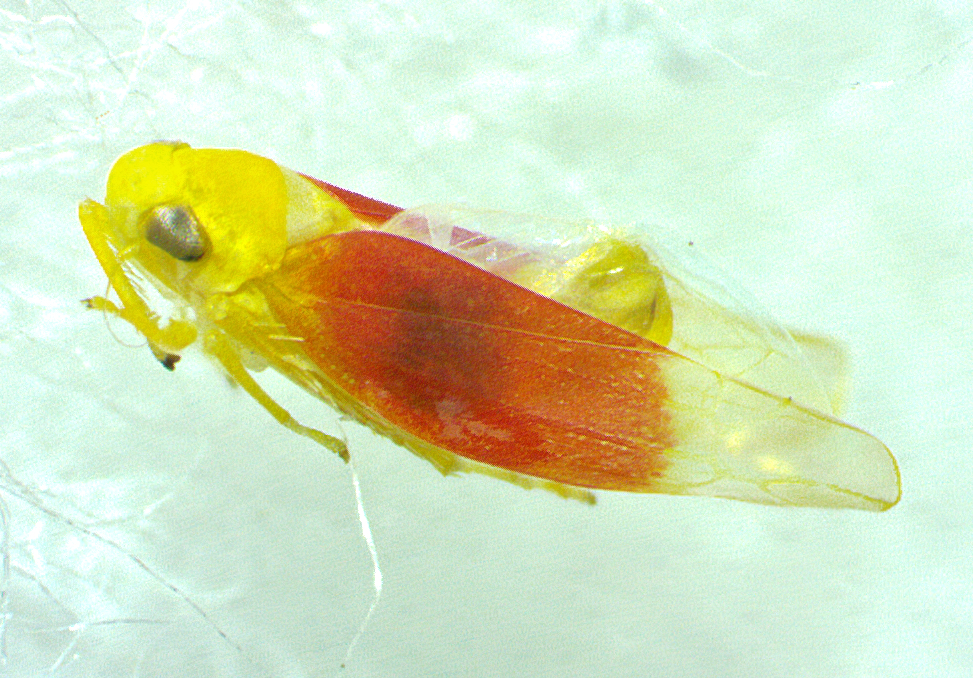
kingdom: Animalia
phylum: Arthropoda
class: Insecta
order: Hemiptera
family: Cicadellidae
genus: Ossiannilssonola
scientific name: Ossiannilssonola tunicarubra
